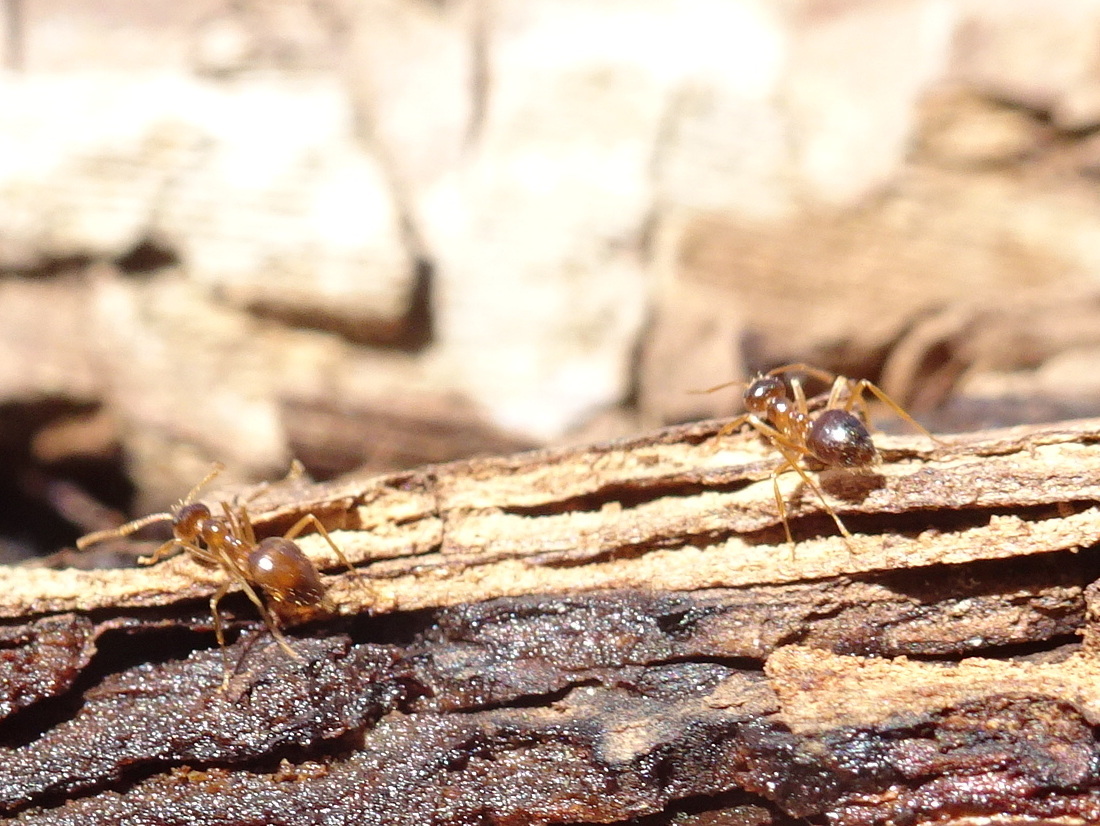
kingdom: Animalia
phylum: Arthropoda
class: Insecta
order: Hymenoptera
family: Formicidae
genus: Prenolepis
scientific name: Prenolepis imparis
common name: Small honey ant
